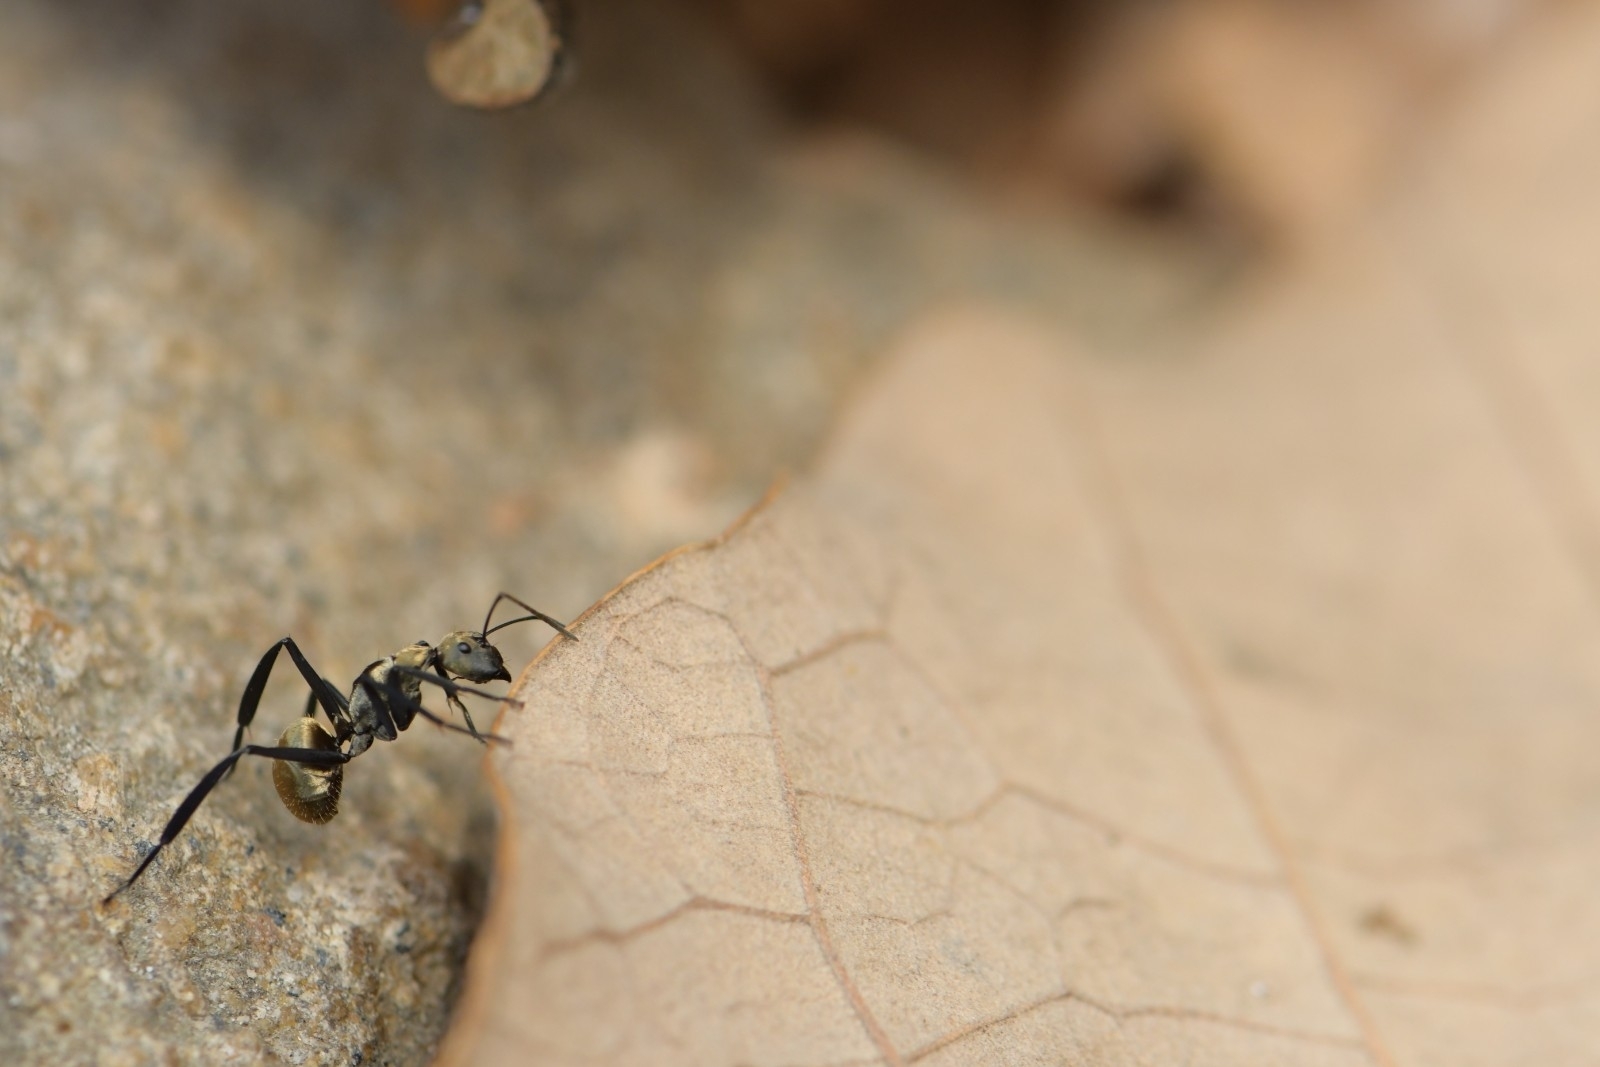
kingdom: Animalia
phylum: Arthropoda
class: Insecta
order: Hymenoptera
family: Formicidae
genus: Camponotus
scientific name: Camponotus sericeiventris
